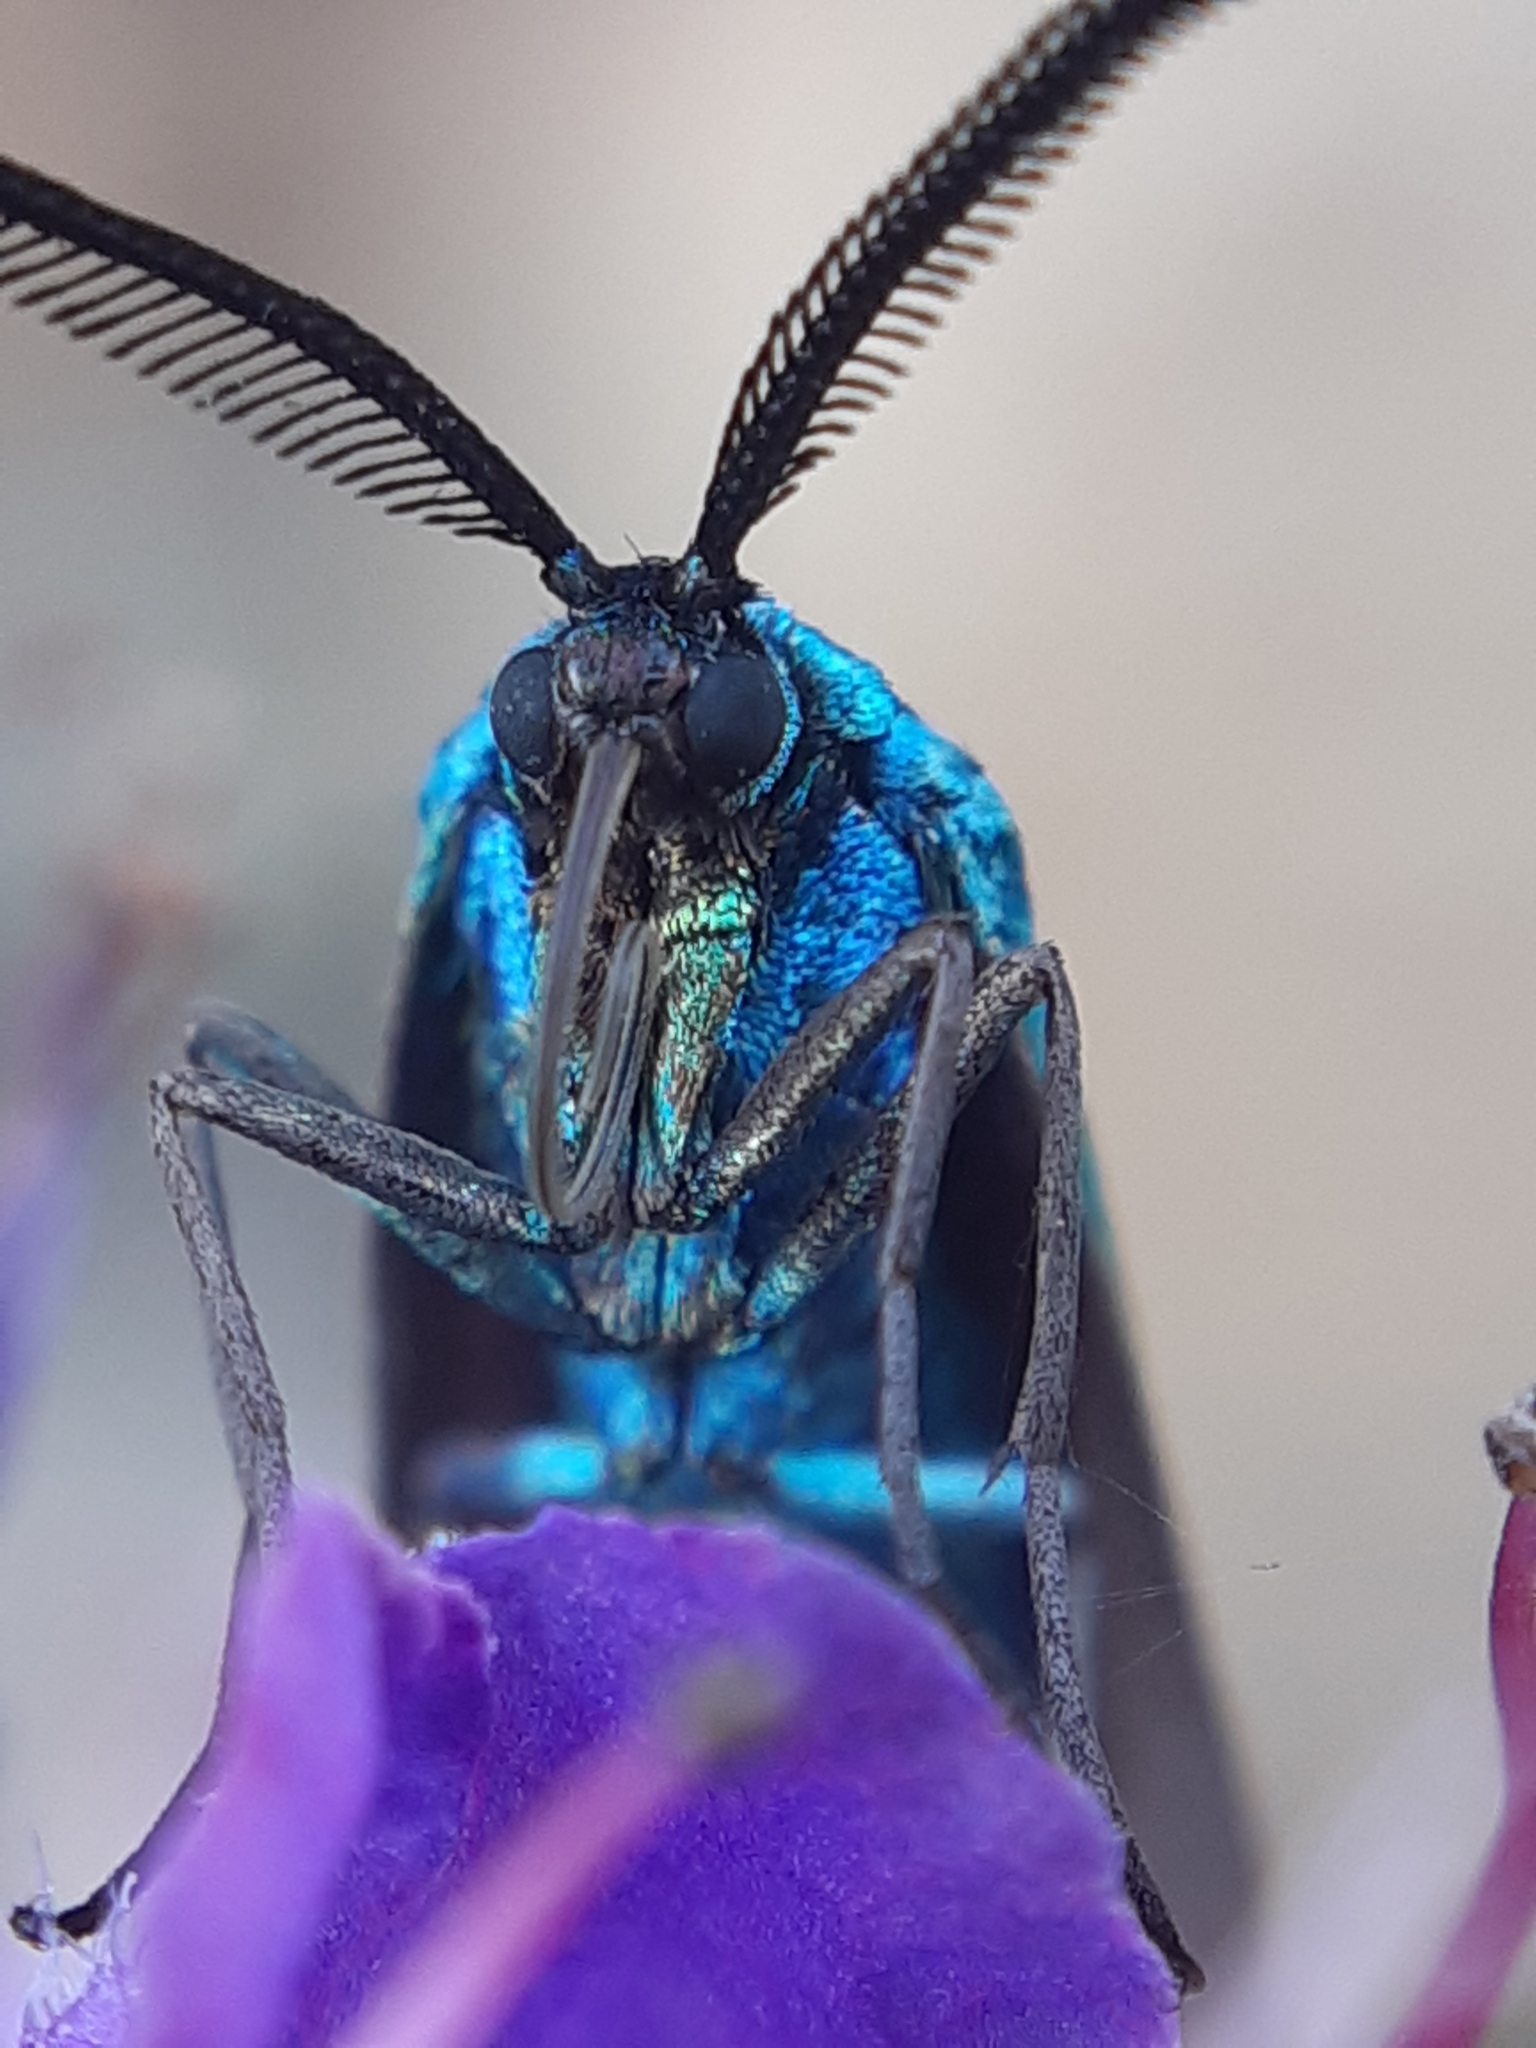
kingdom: Animalia
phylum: Arthropoda
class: Insecta
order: Lepidoptera
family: Zygaenidae
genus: Adscita
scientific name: Adscita statices
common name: Forester
